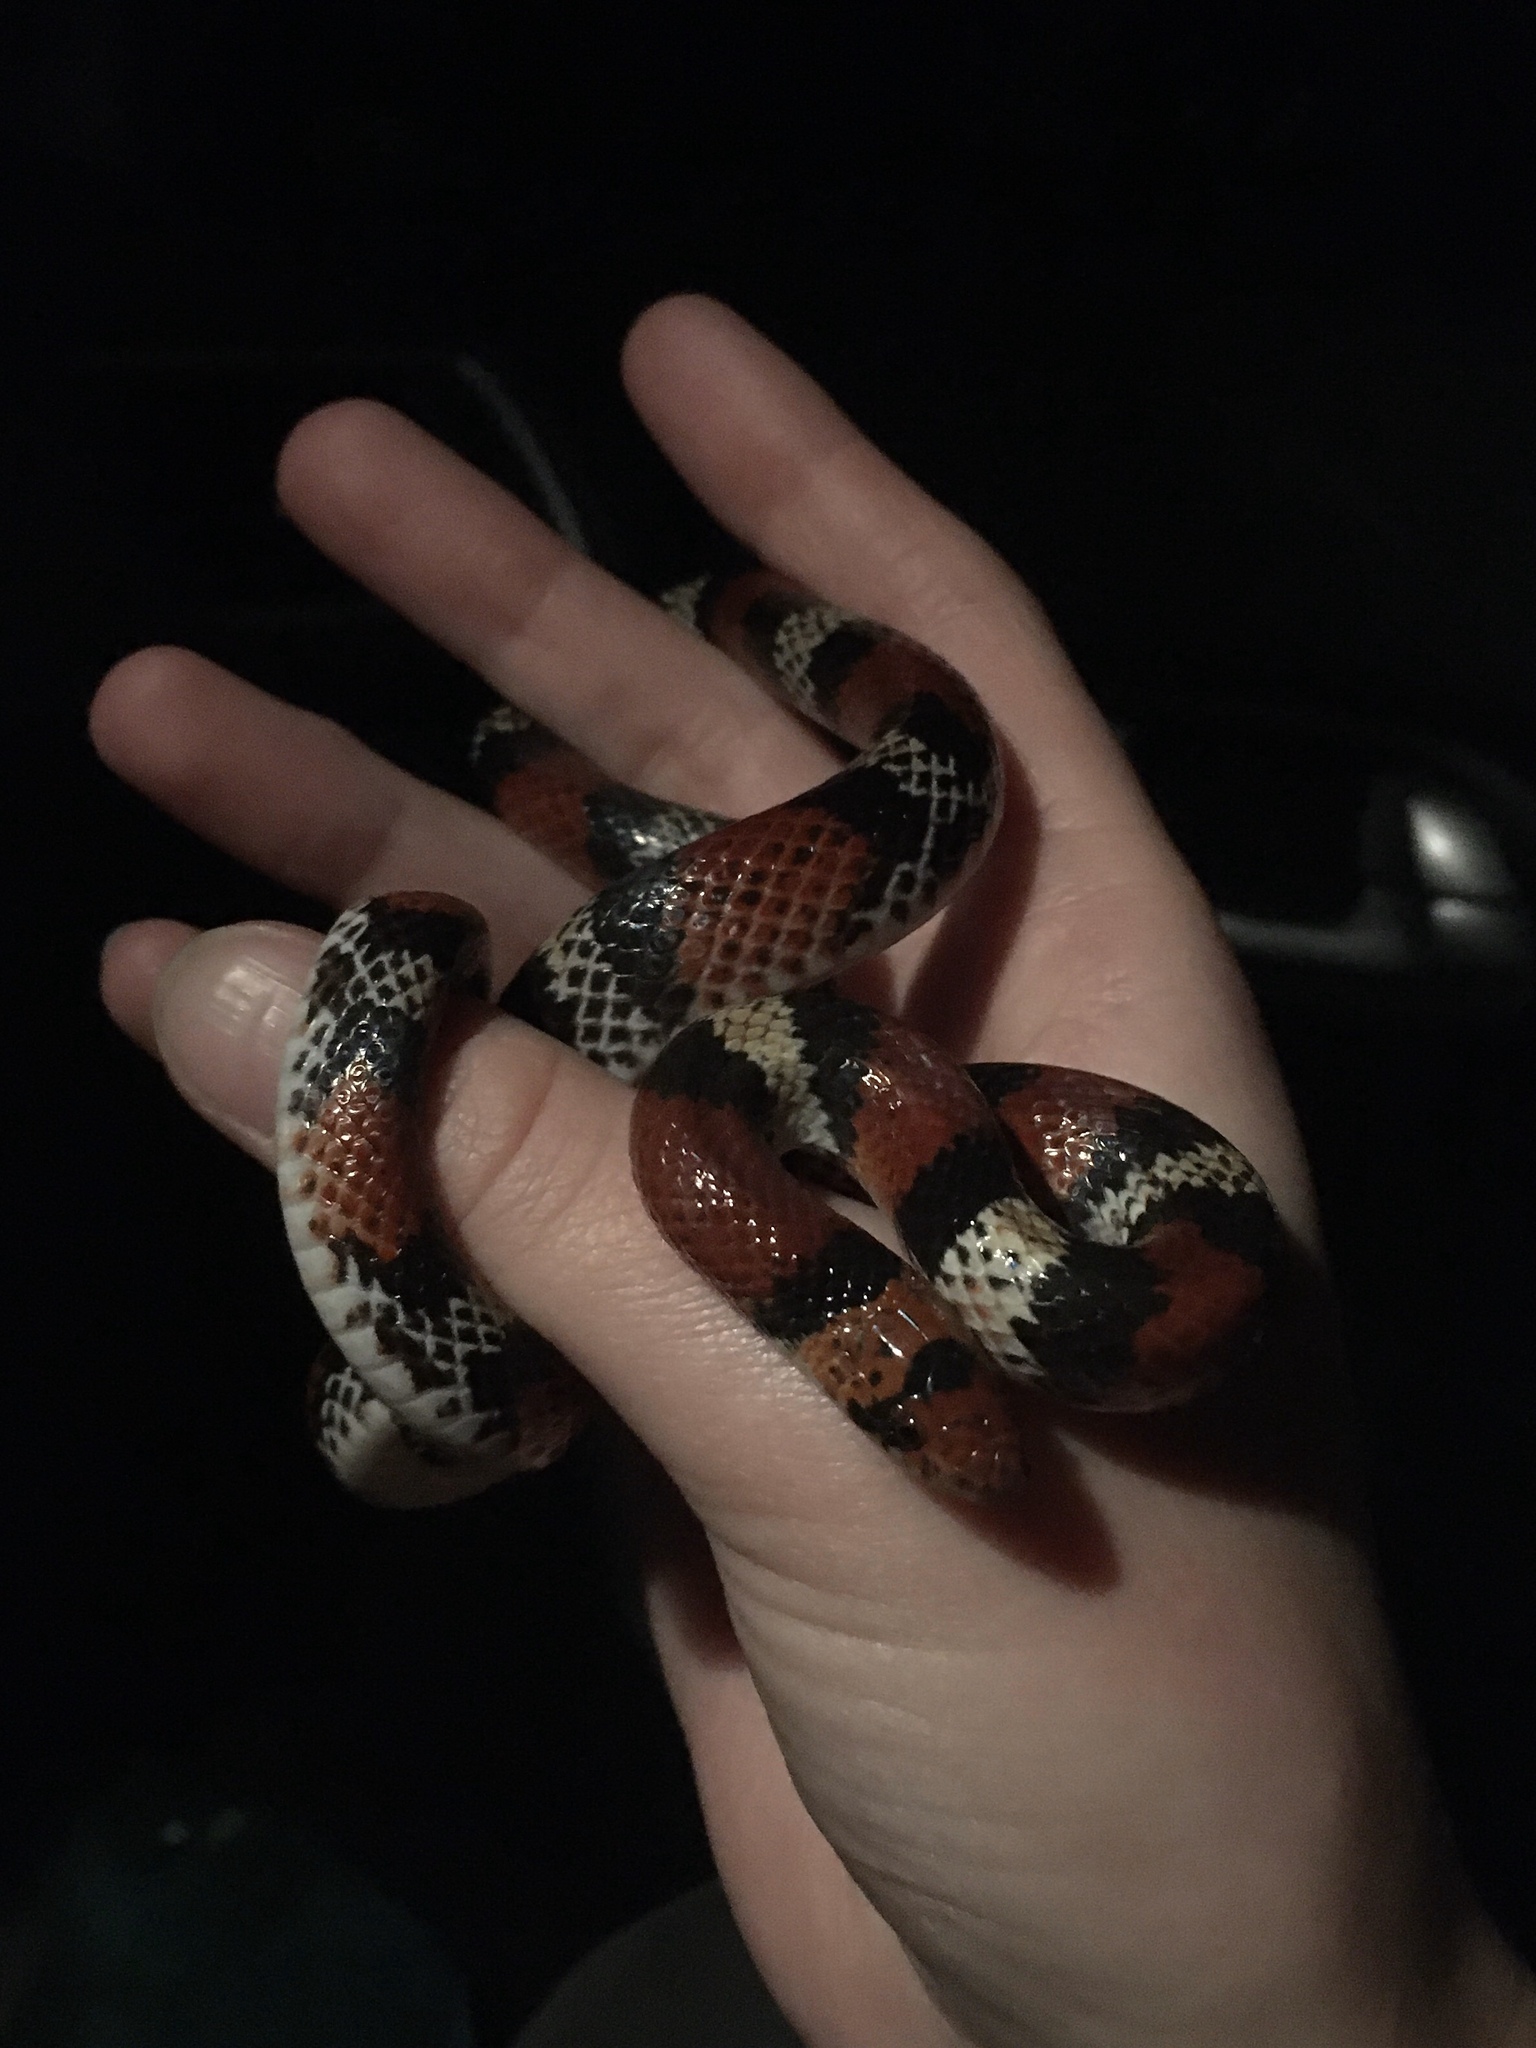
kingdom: Animalia
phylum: Chordata
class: Squamata
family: Colubridae
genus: Cemophora
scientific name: Cemophora coccinea
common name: Scarlet snake
